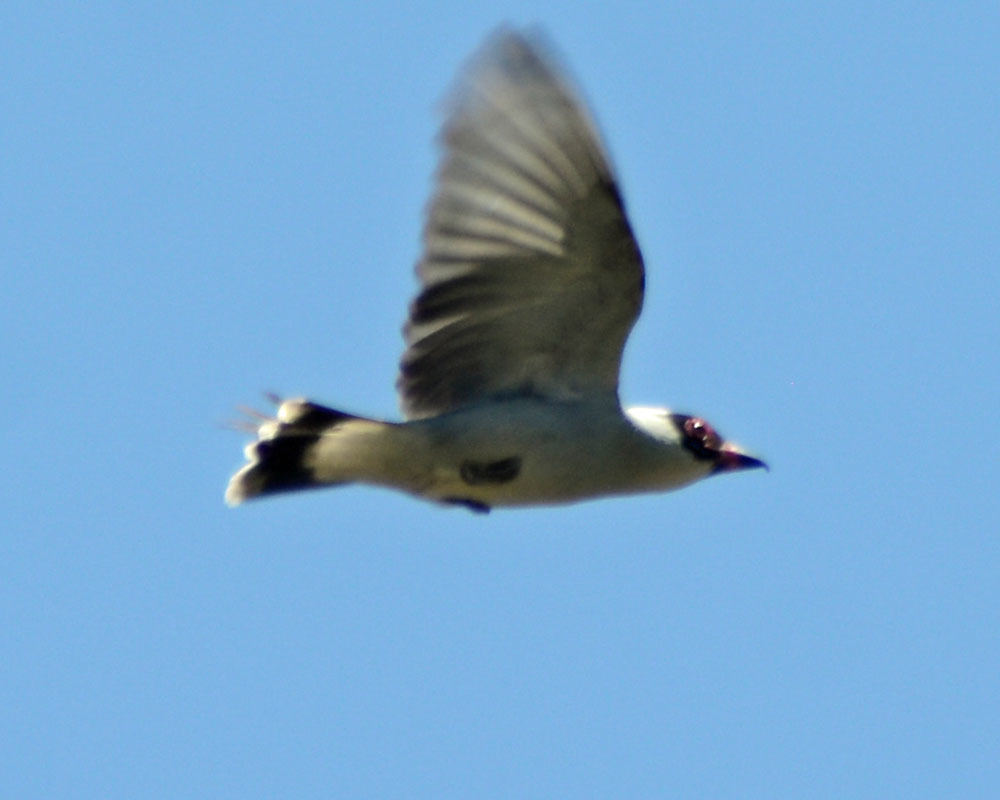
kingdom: Animalia
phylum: Chordata
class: Aves
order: Passeriformes
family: Cotingidae
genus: Tityra
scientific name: Tityra semifasciata
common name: Masked tityra
